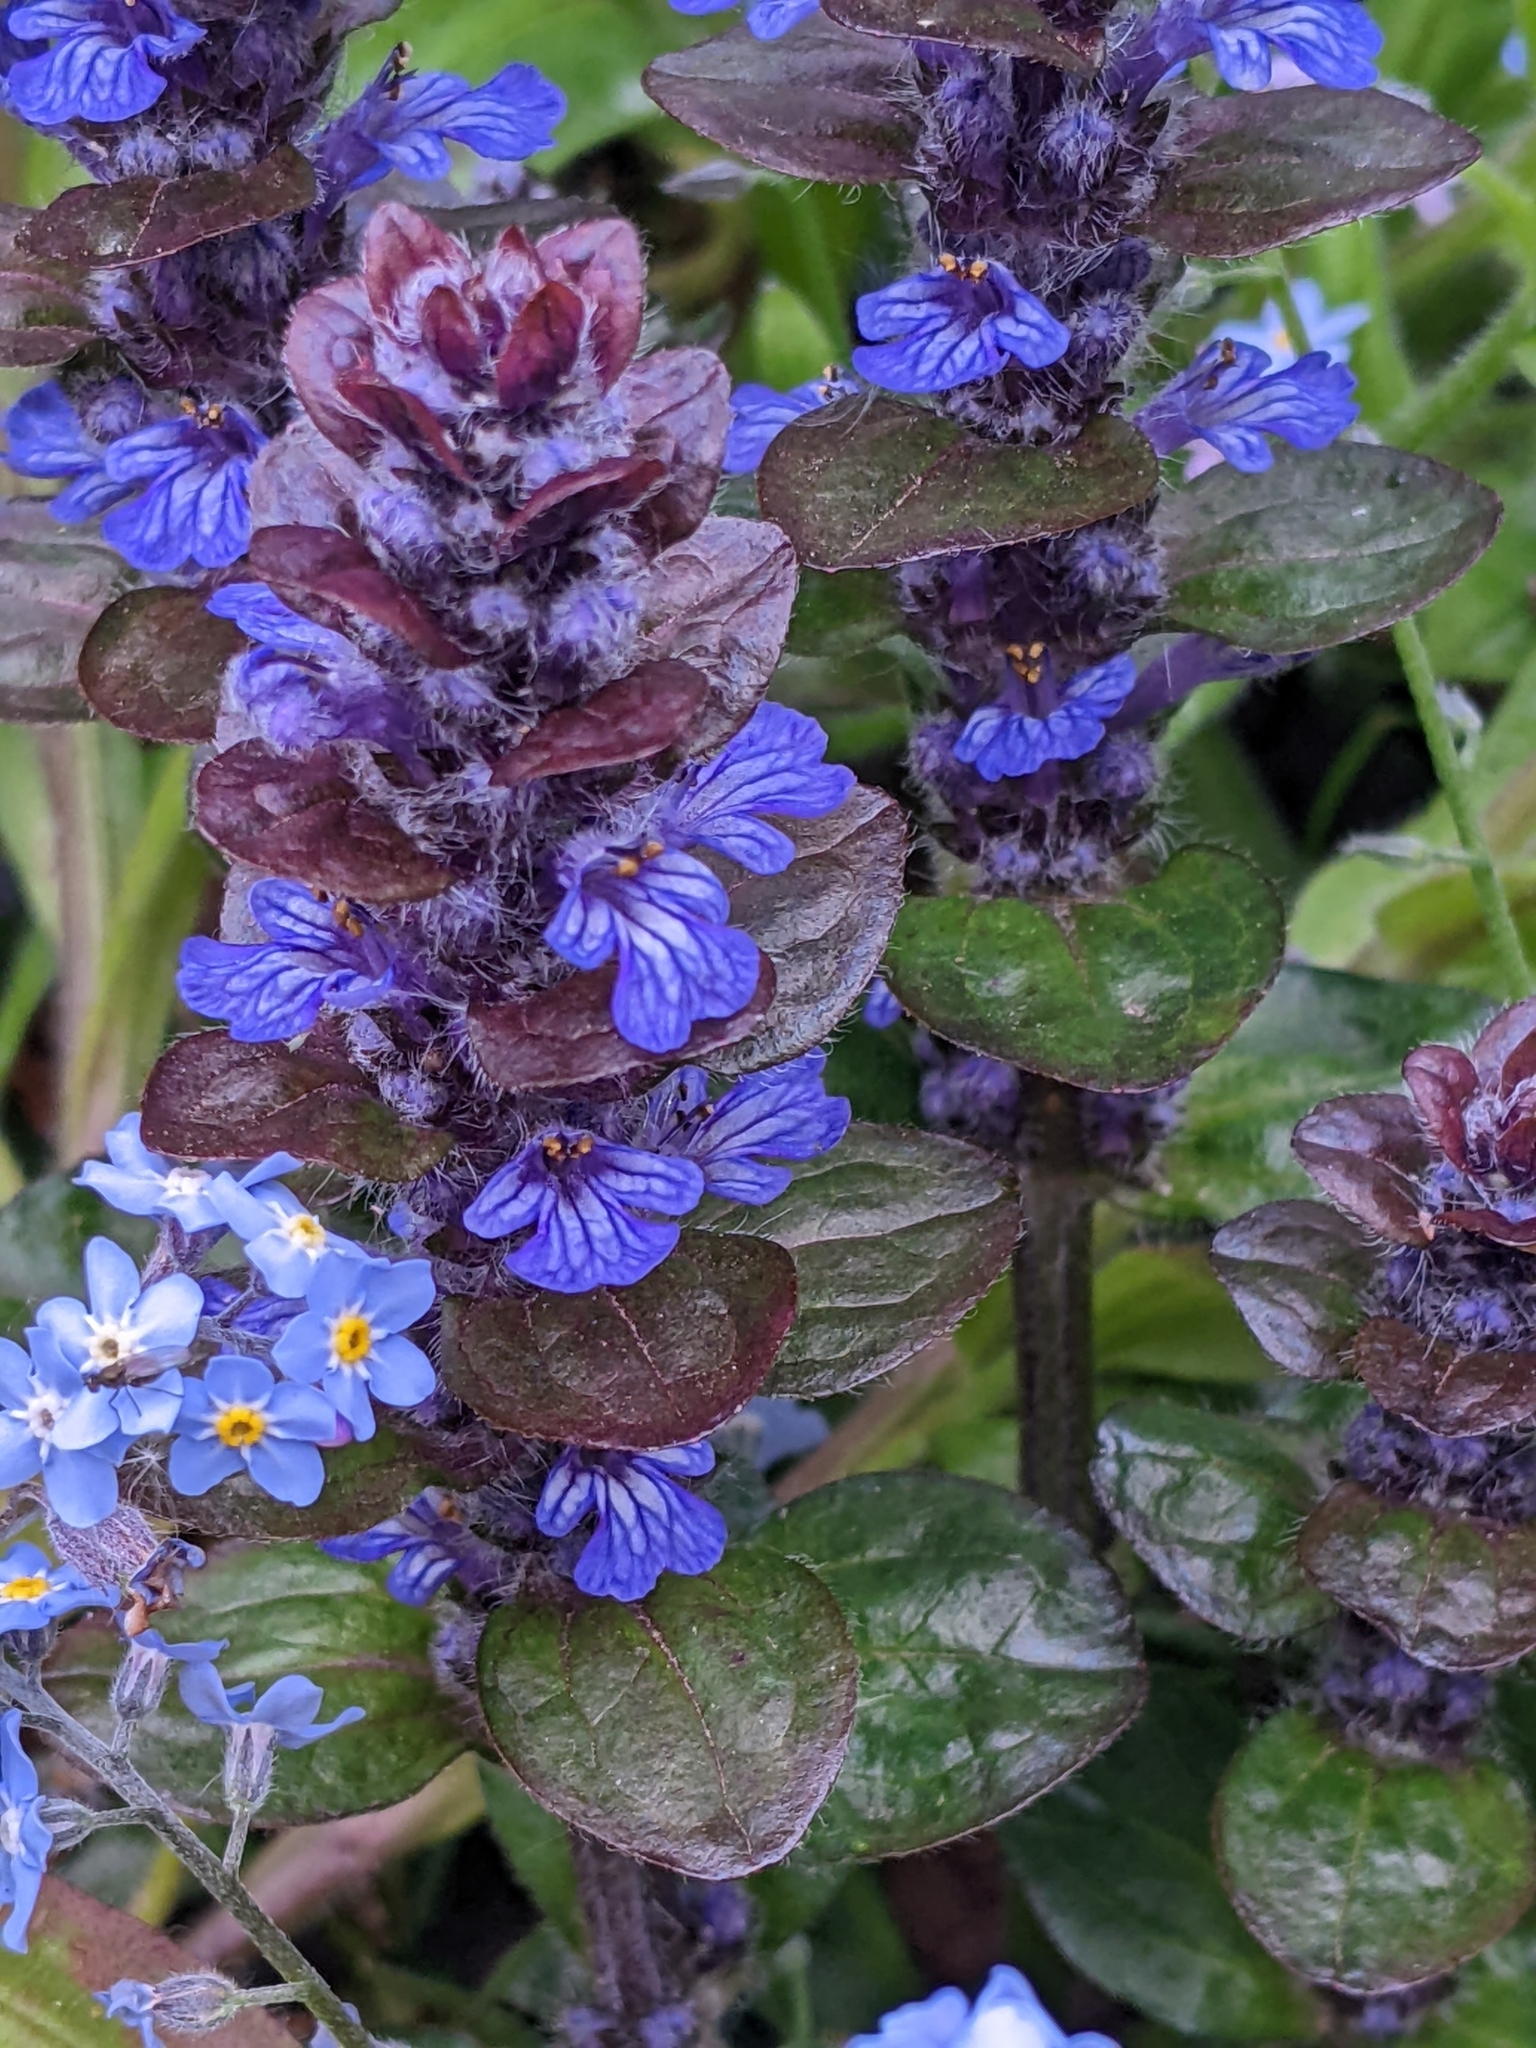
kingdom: Plantae
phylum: Tracheophyta
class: Magnoliopsida
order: Lamiales
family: Lamiaceae
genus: Ajuga
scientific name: Ajuga reptans
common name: Bugle
